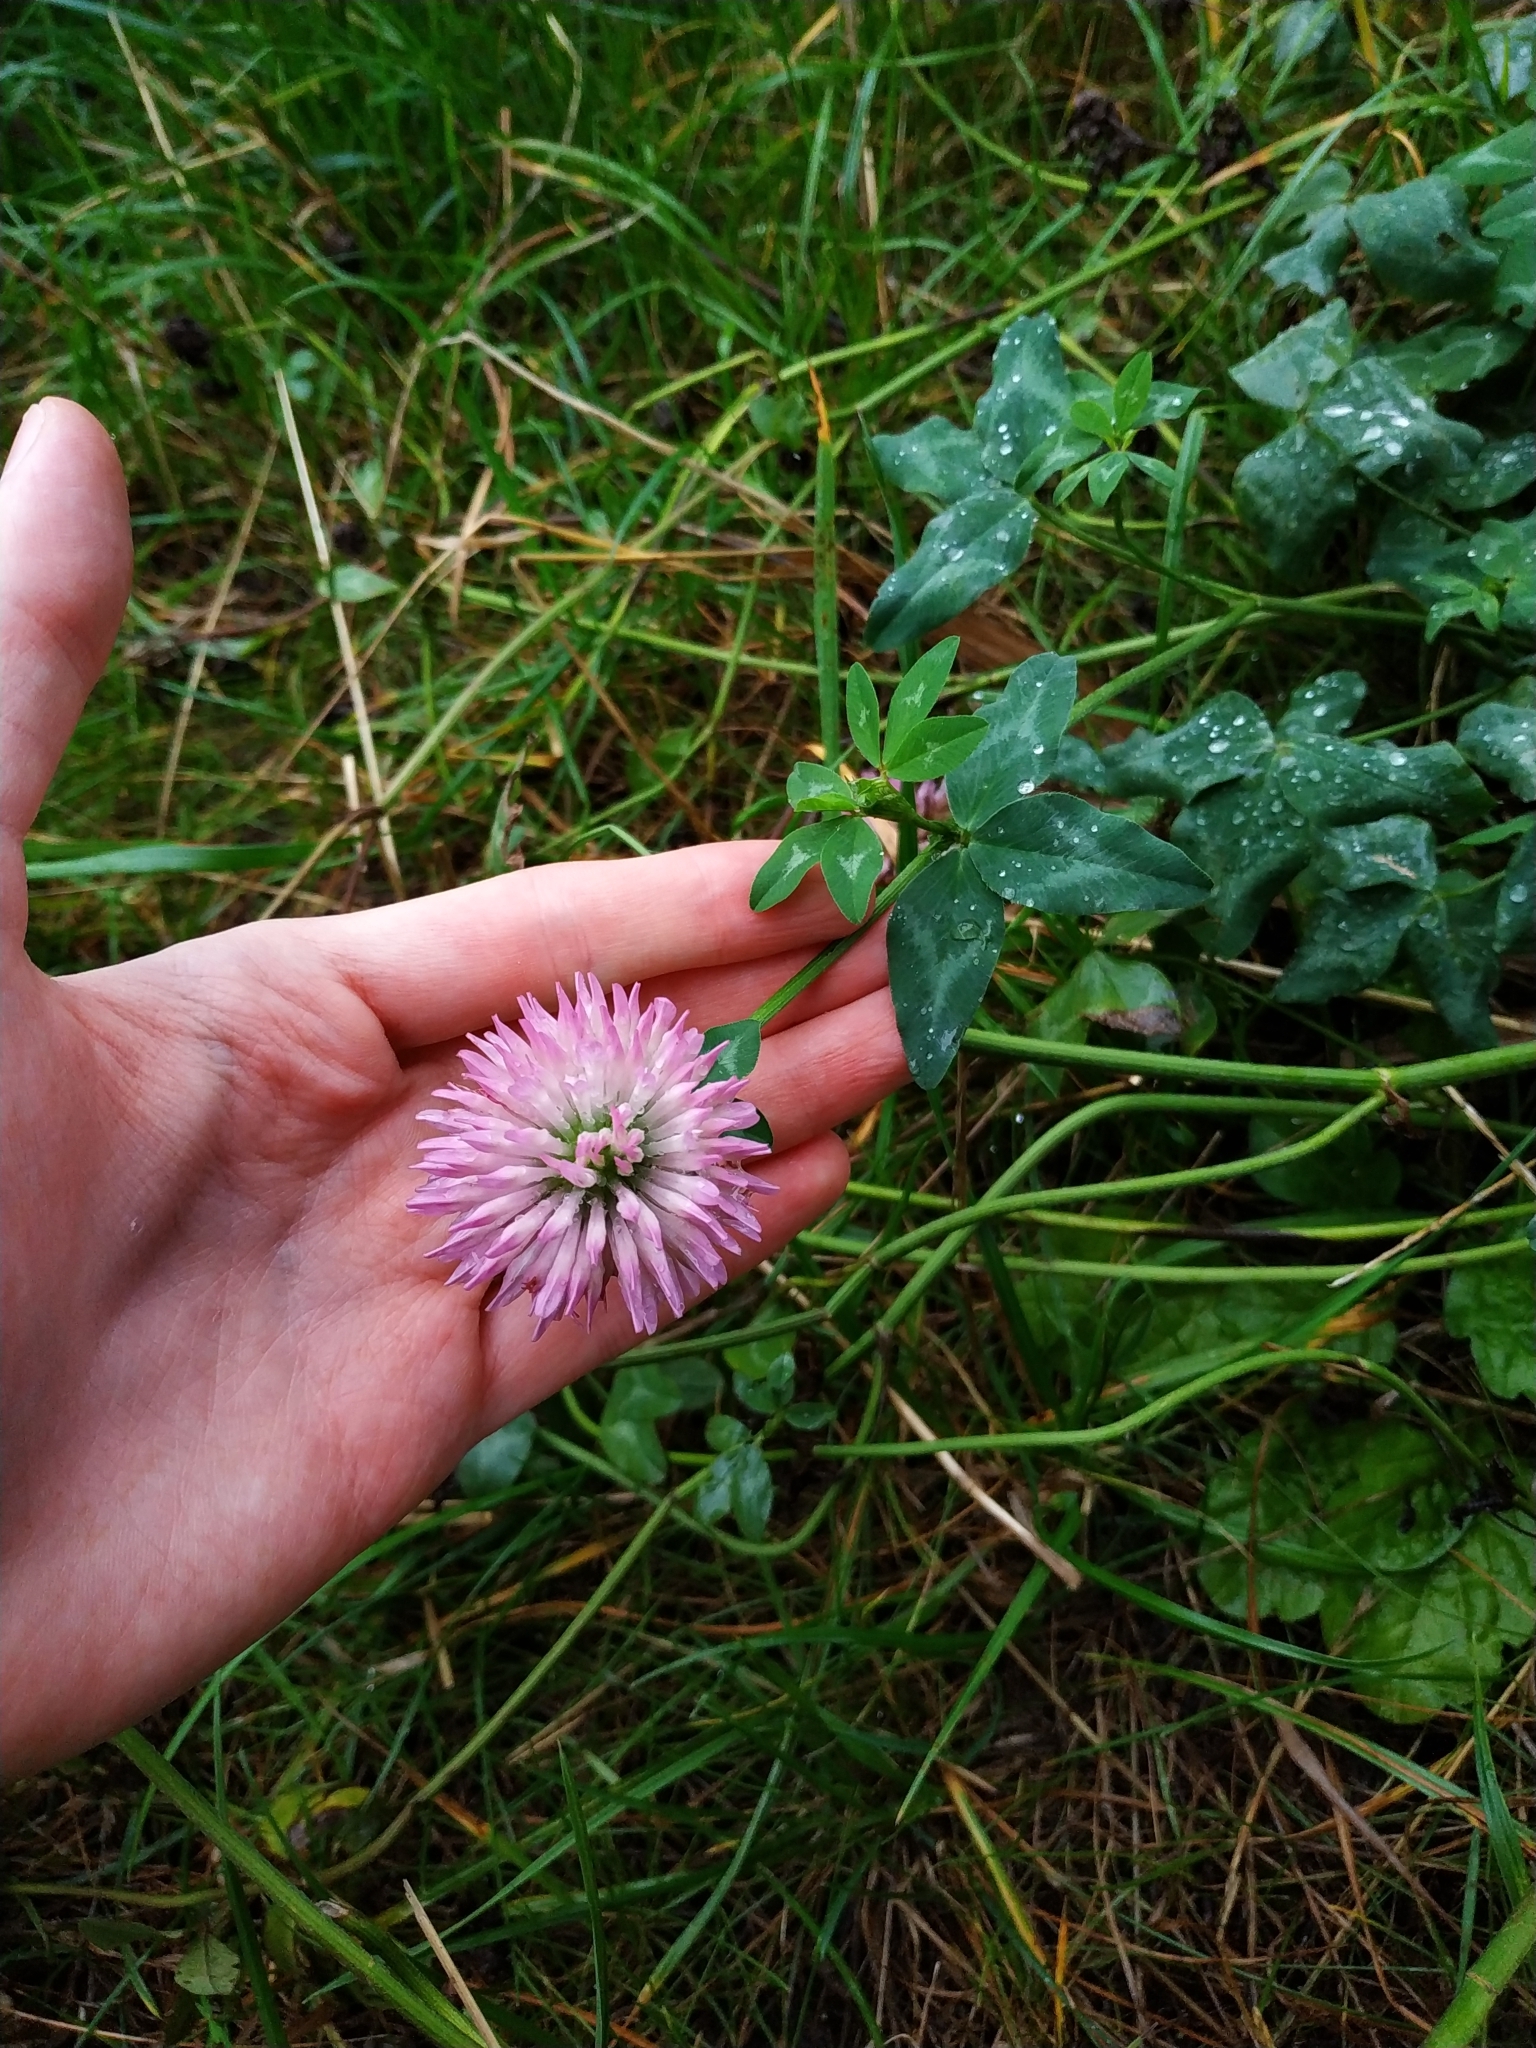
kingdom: Plantae
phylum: Tracheophyta
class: Magnoliopsida
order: Fabales
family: Fabaceae
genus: Trifolium
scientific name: Trifolium pratense
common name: Red clover
